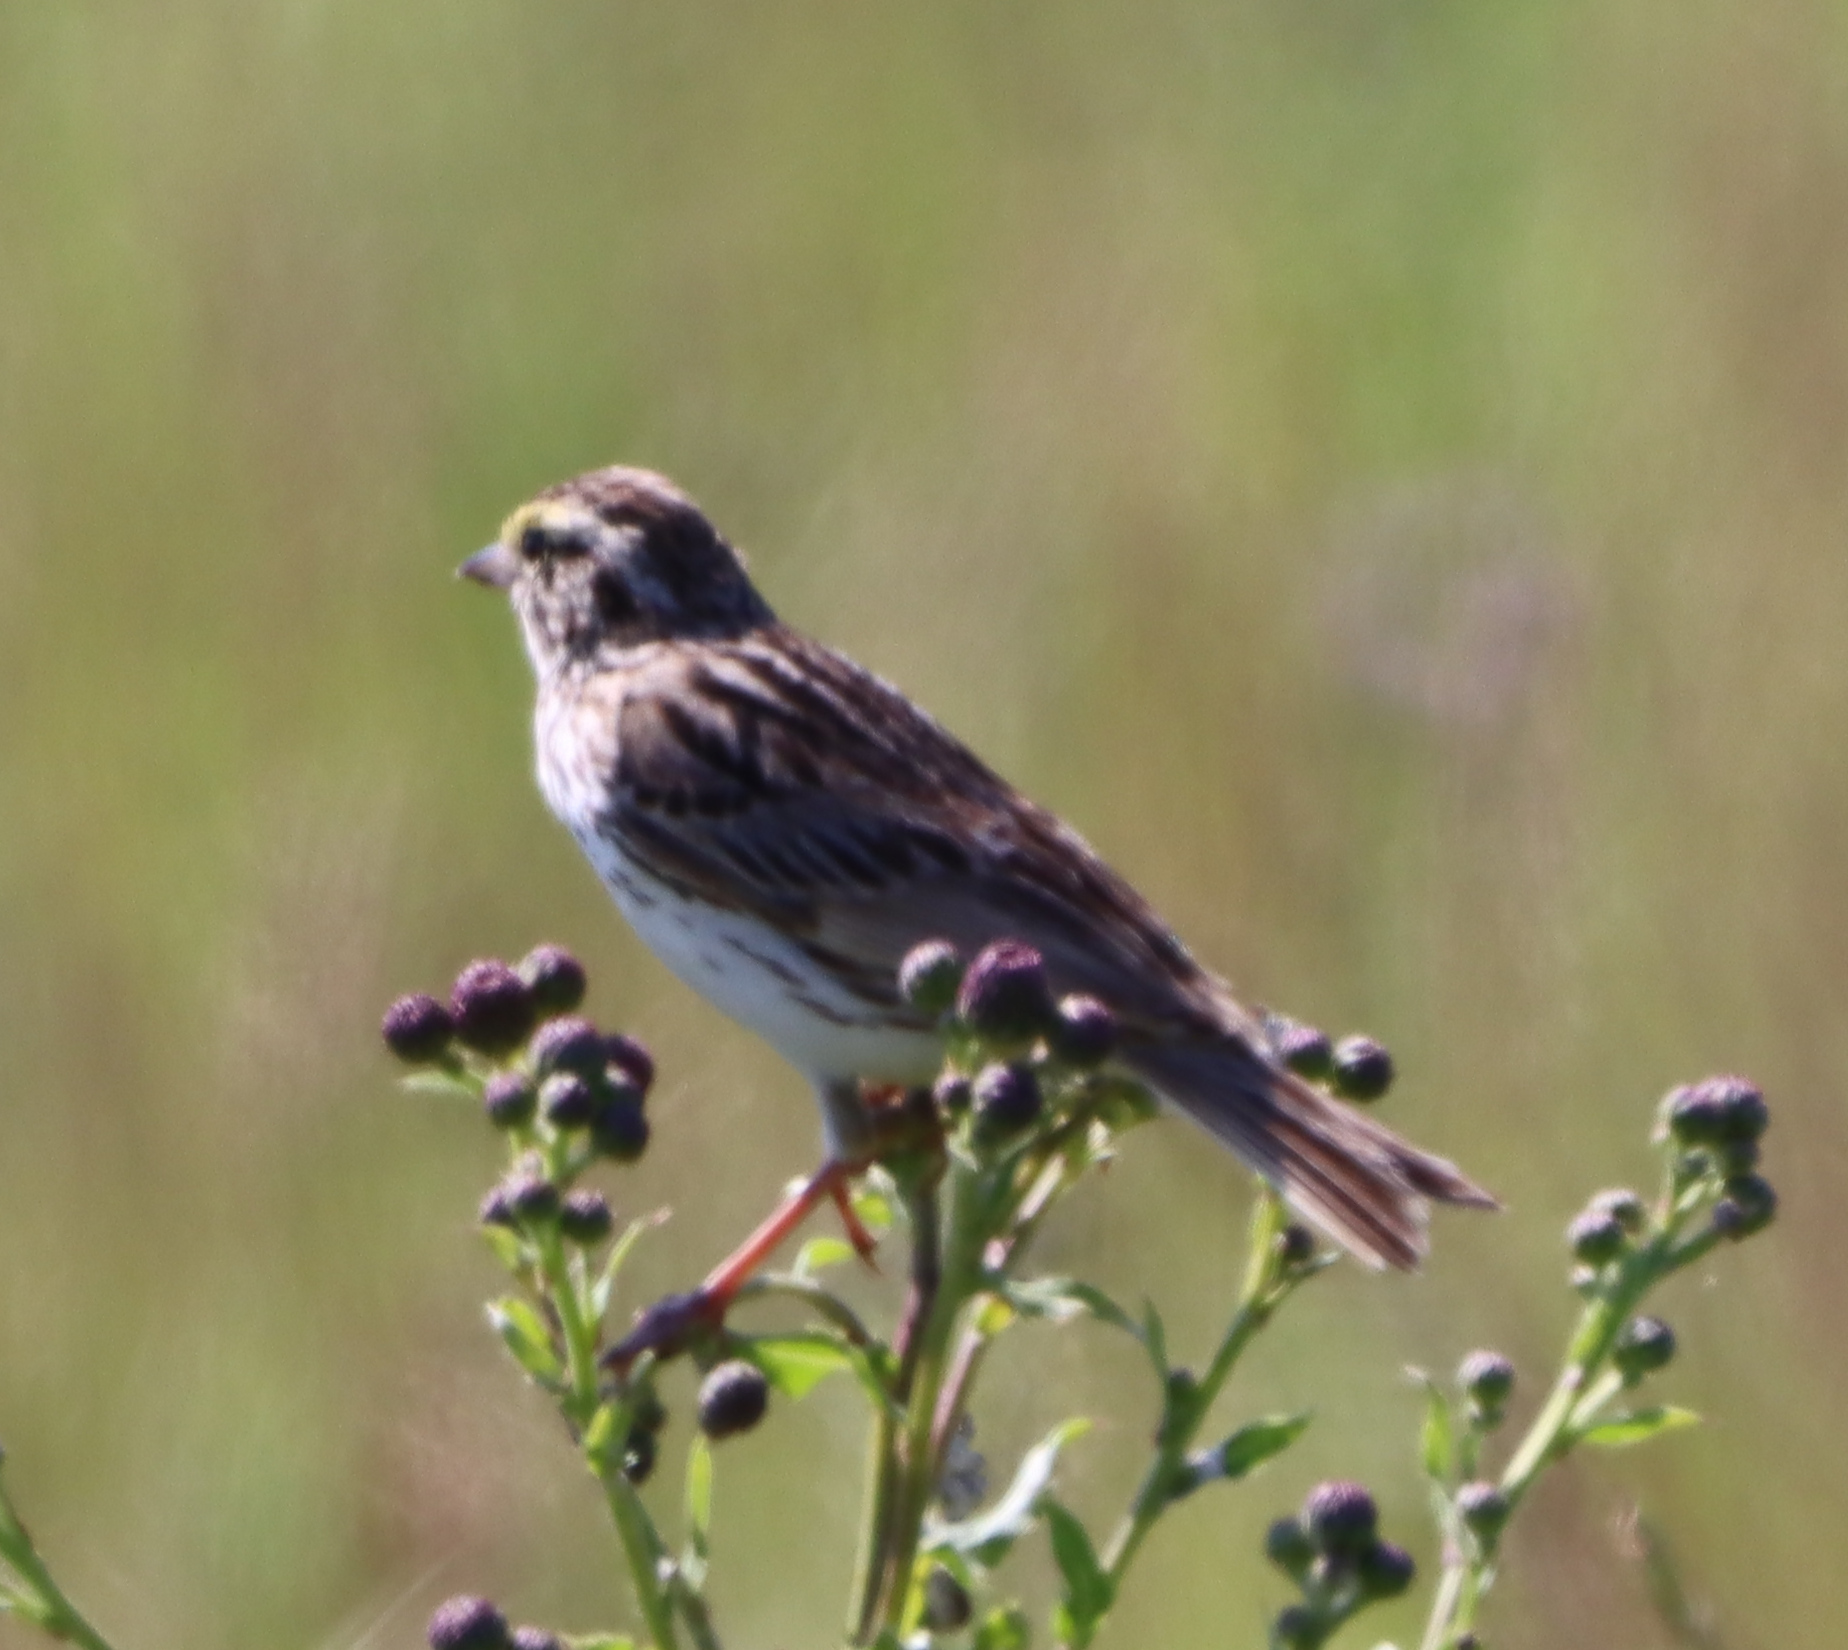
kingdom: Animalia
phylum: Chordata
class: Aves
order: Passeriformes
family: Passerellidae
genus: Passerculus
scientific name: Passerculus sandwichensis
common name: Savannah sparrow
